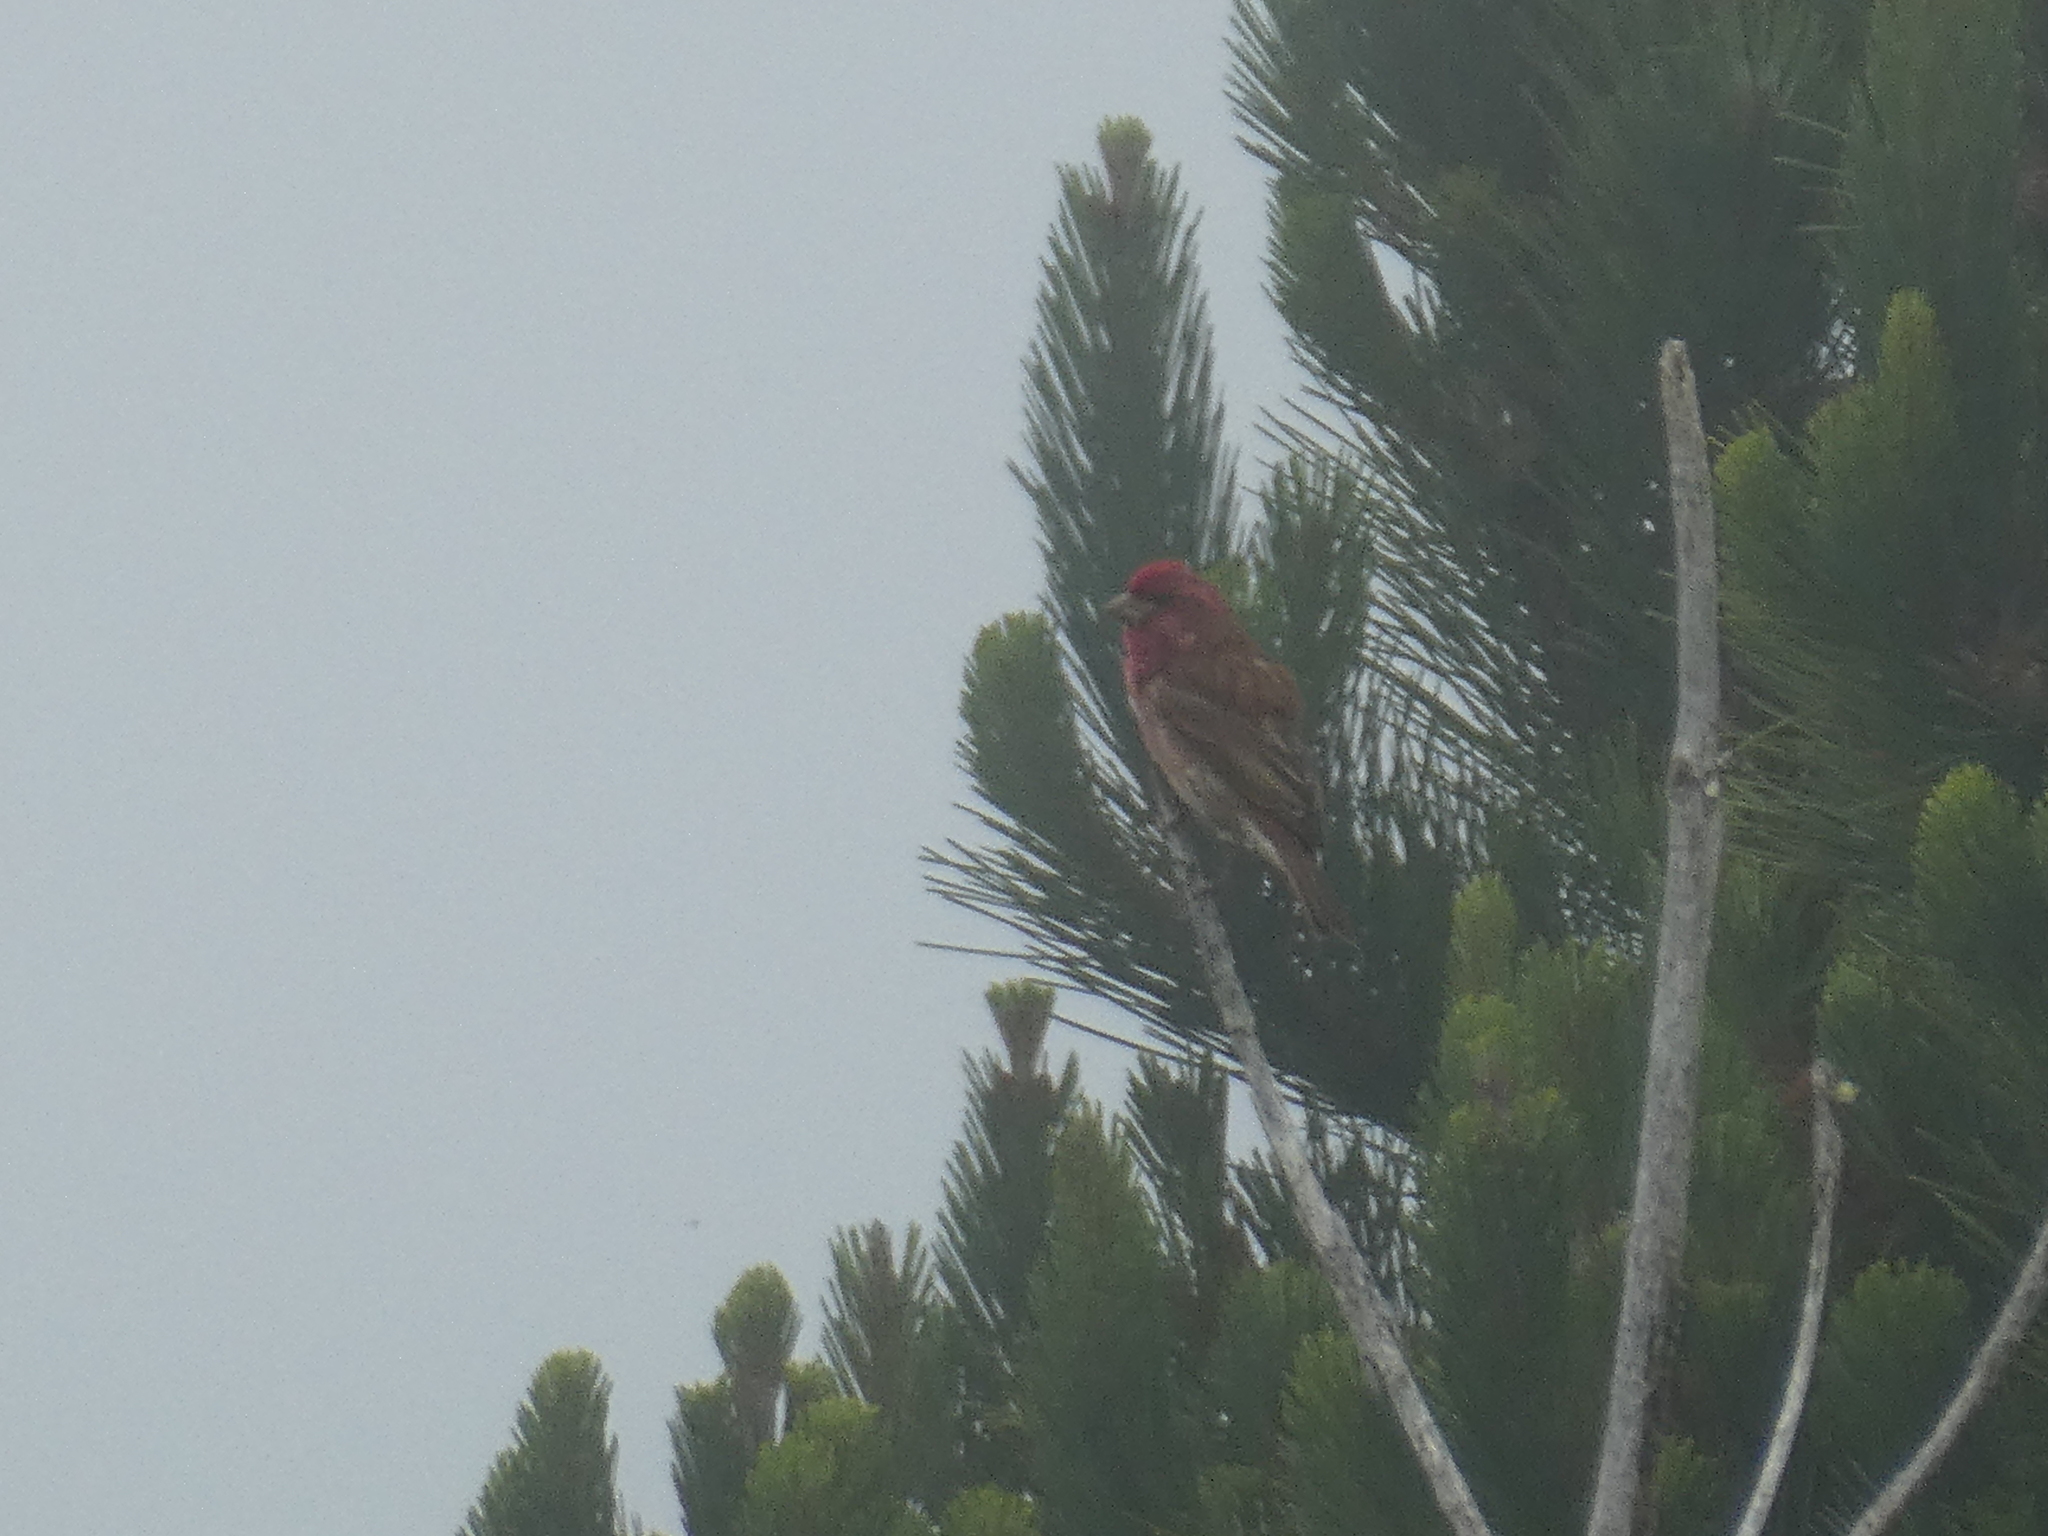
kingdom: Animalia
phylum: Chordata
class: Aves
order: Passeriformes
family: Fringillidae
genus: Haemorhous
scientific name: Haemorhous purpureus
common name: Purple finch
